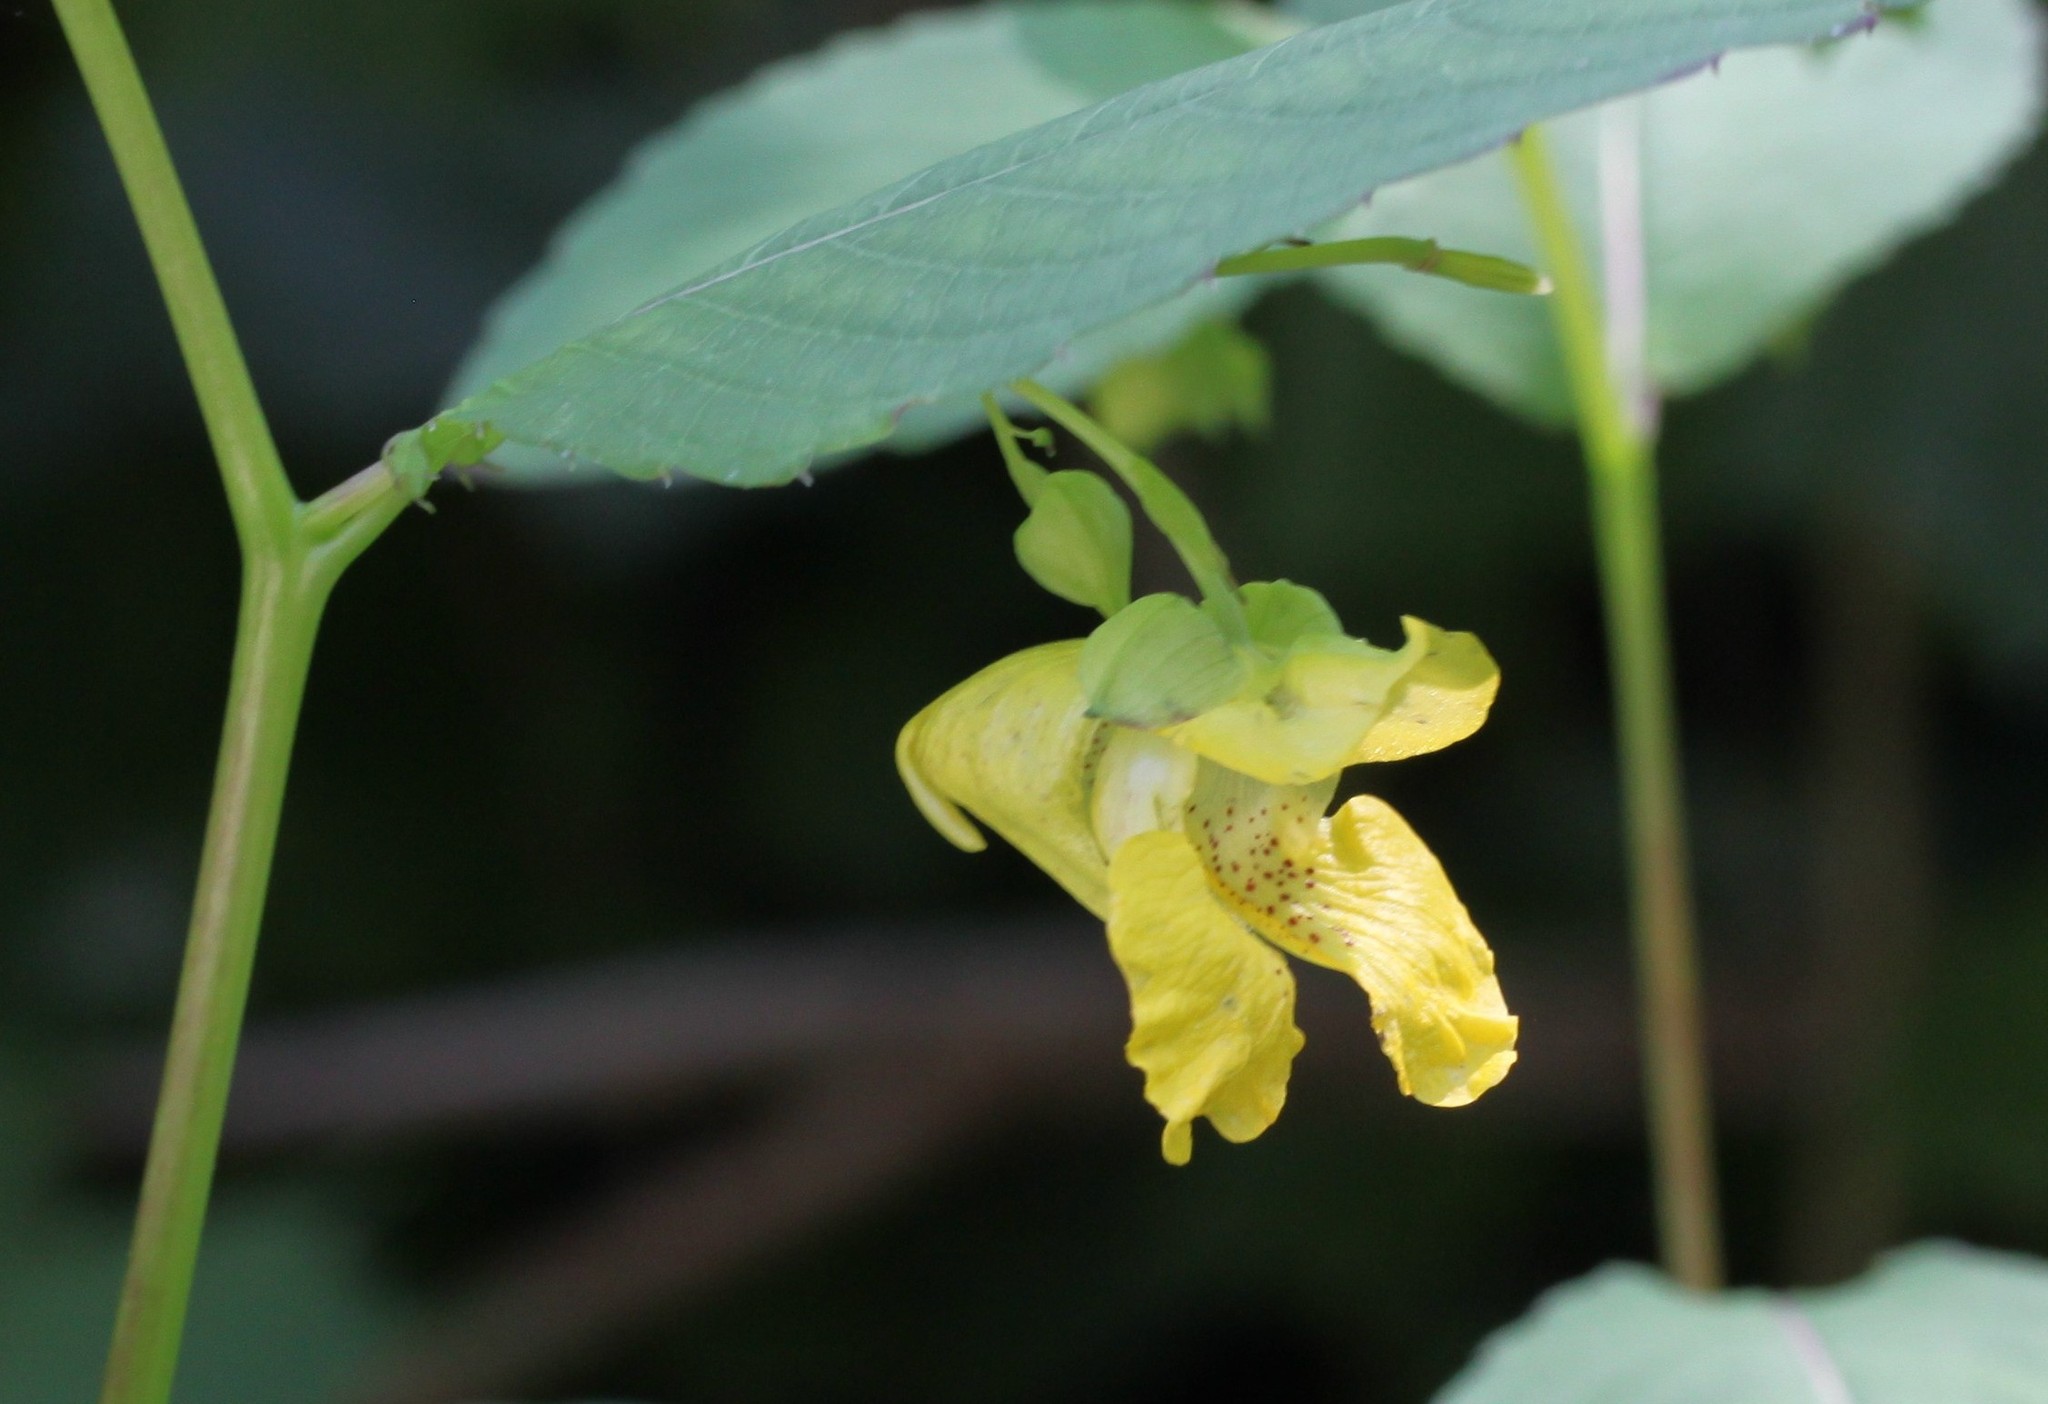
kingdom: Plantae
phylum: Tracheophyta
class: Magnoliopsida
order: Ericales
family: Balsaminaceae
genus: Impatiens
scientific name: Impatiens pallida
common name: Pale snapweed
